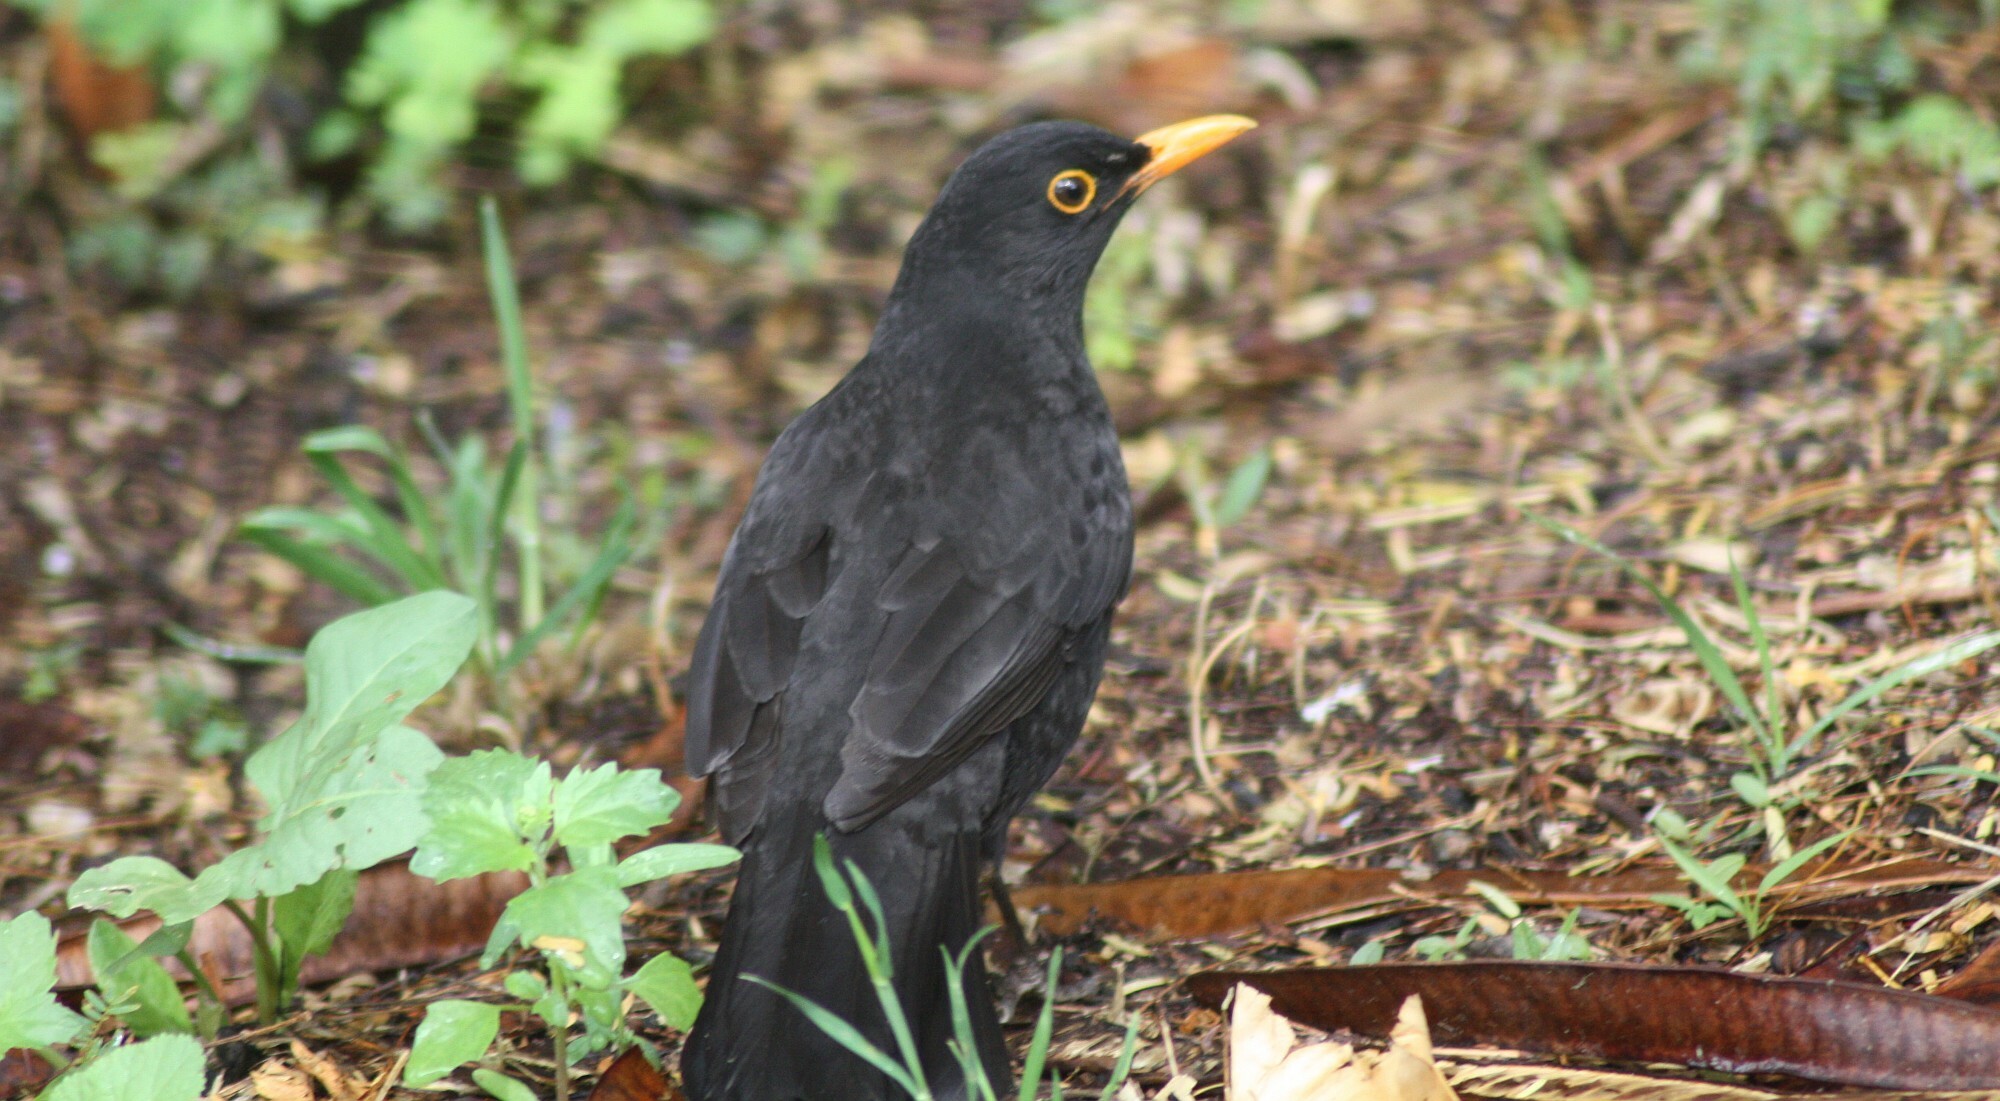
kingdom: Animalia
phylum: Chordata
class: Aves
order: Passeriformes
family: Turdidae
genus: Turdus
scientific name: Turdus merula
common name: Common blackbird
